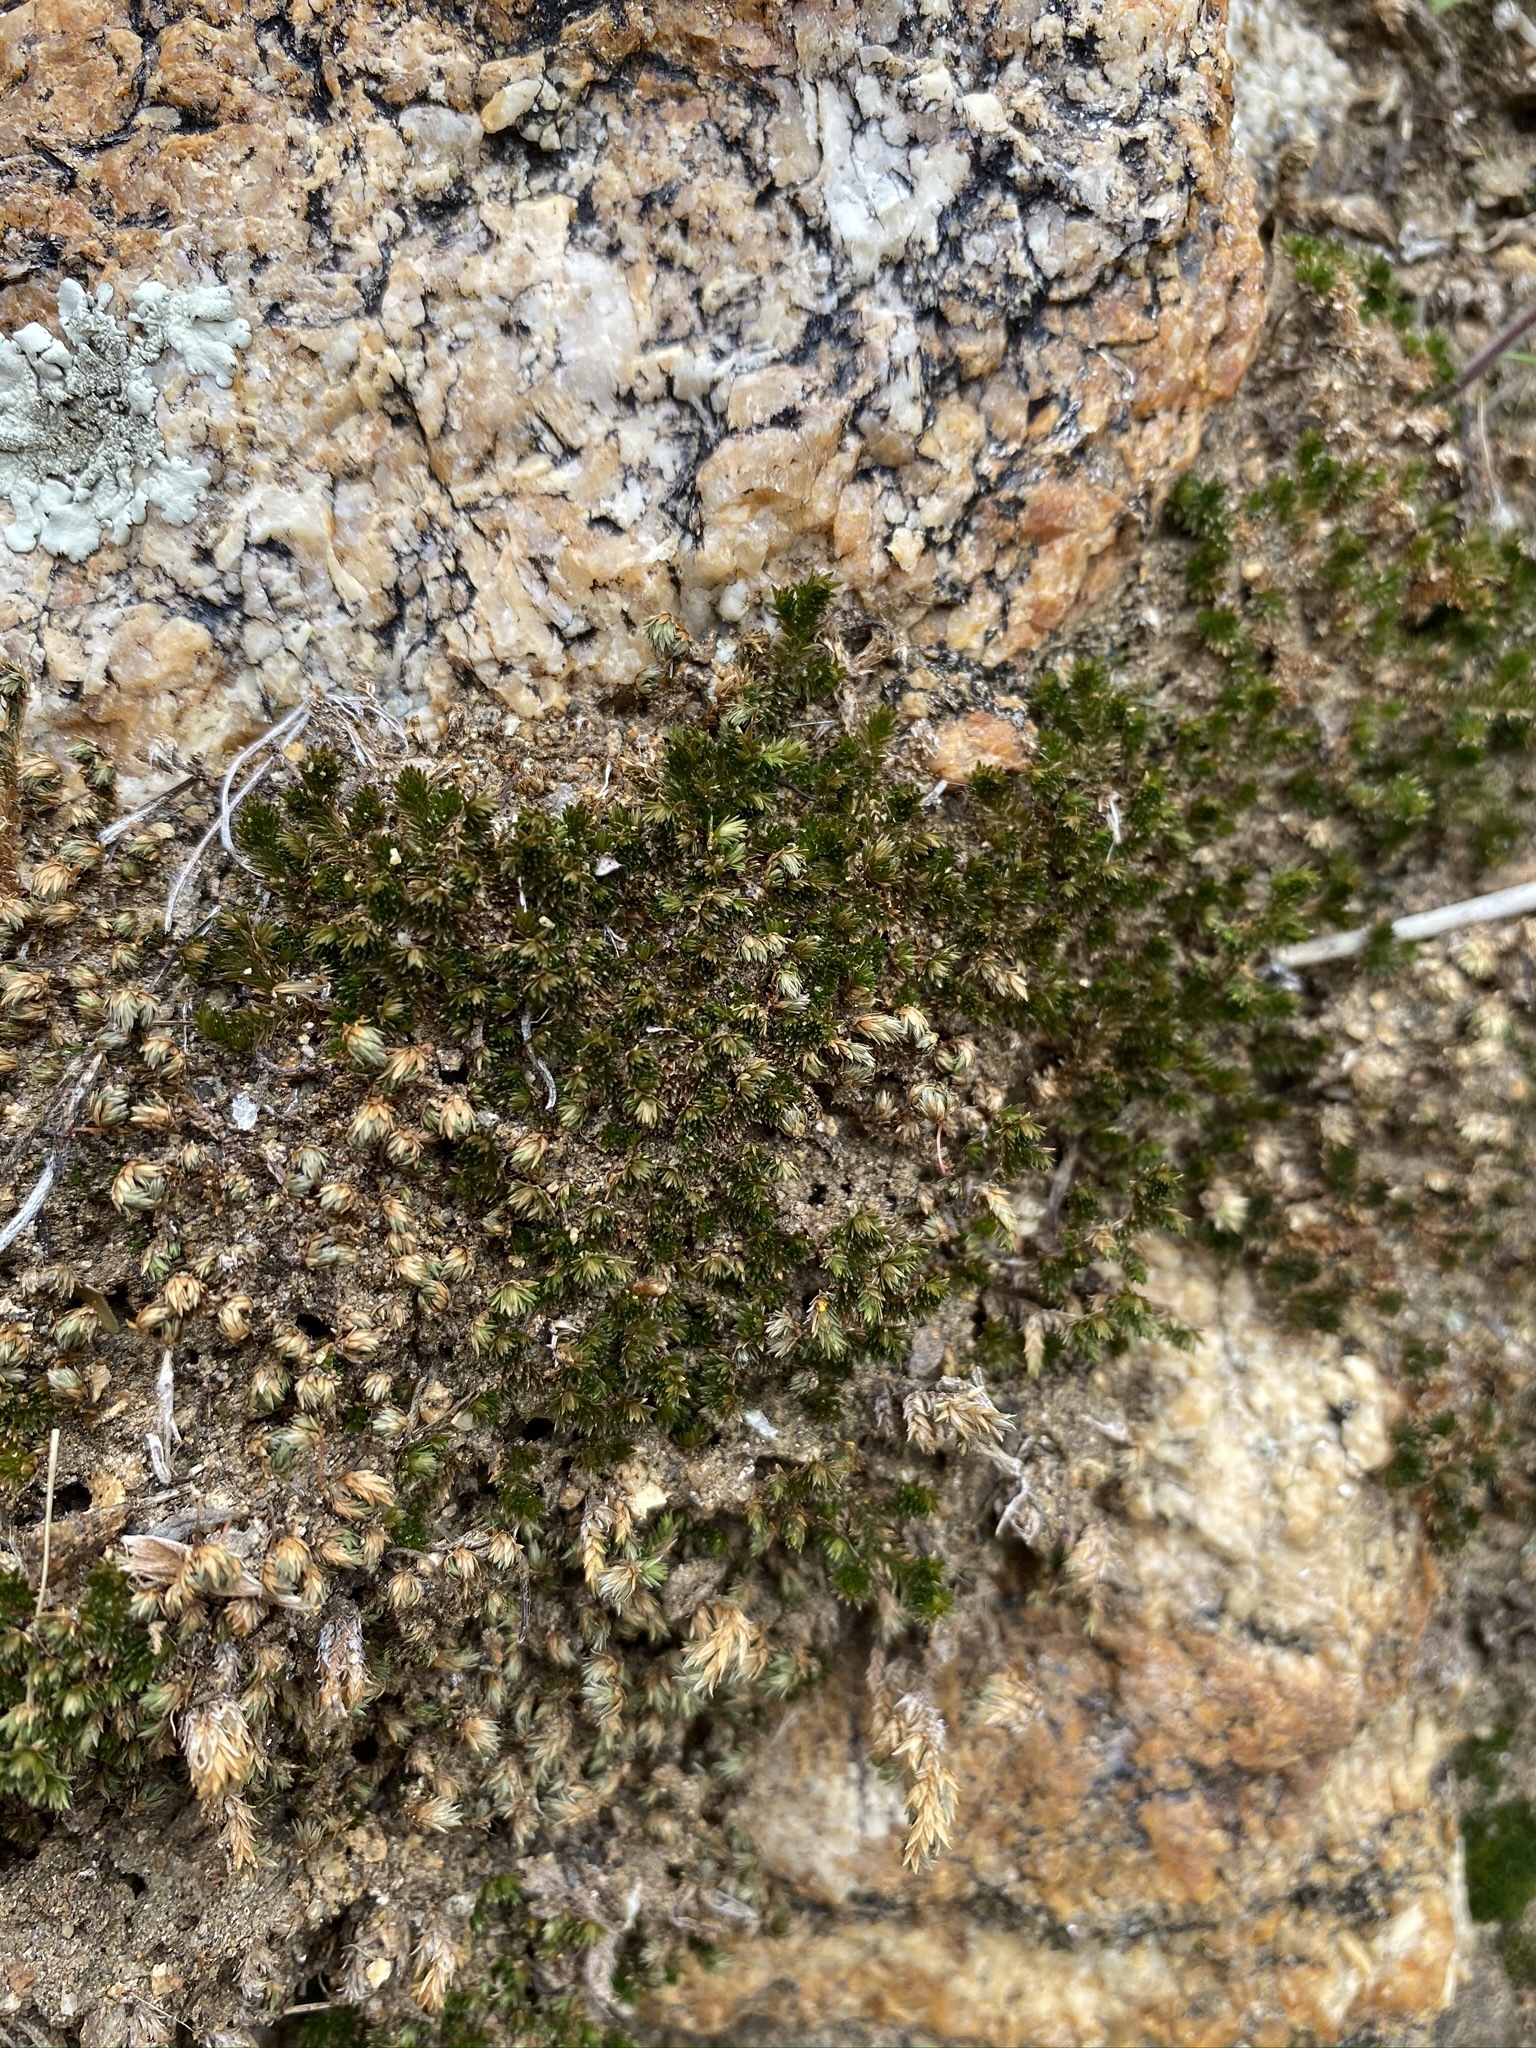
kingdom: Plantae
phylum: Tracheophyta
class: Lycopodiopsida
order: Selaginellales
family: Selaginellaceae
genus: Selaginella
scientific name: Selaginella eremophila
